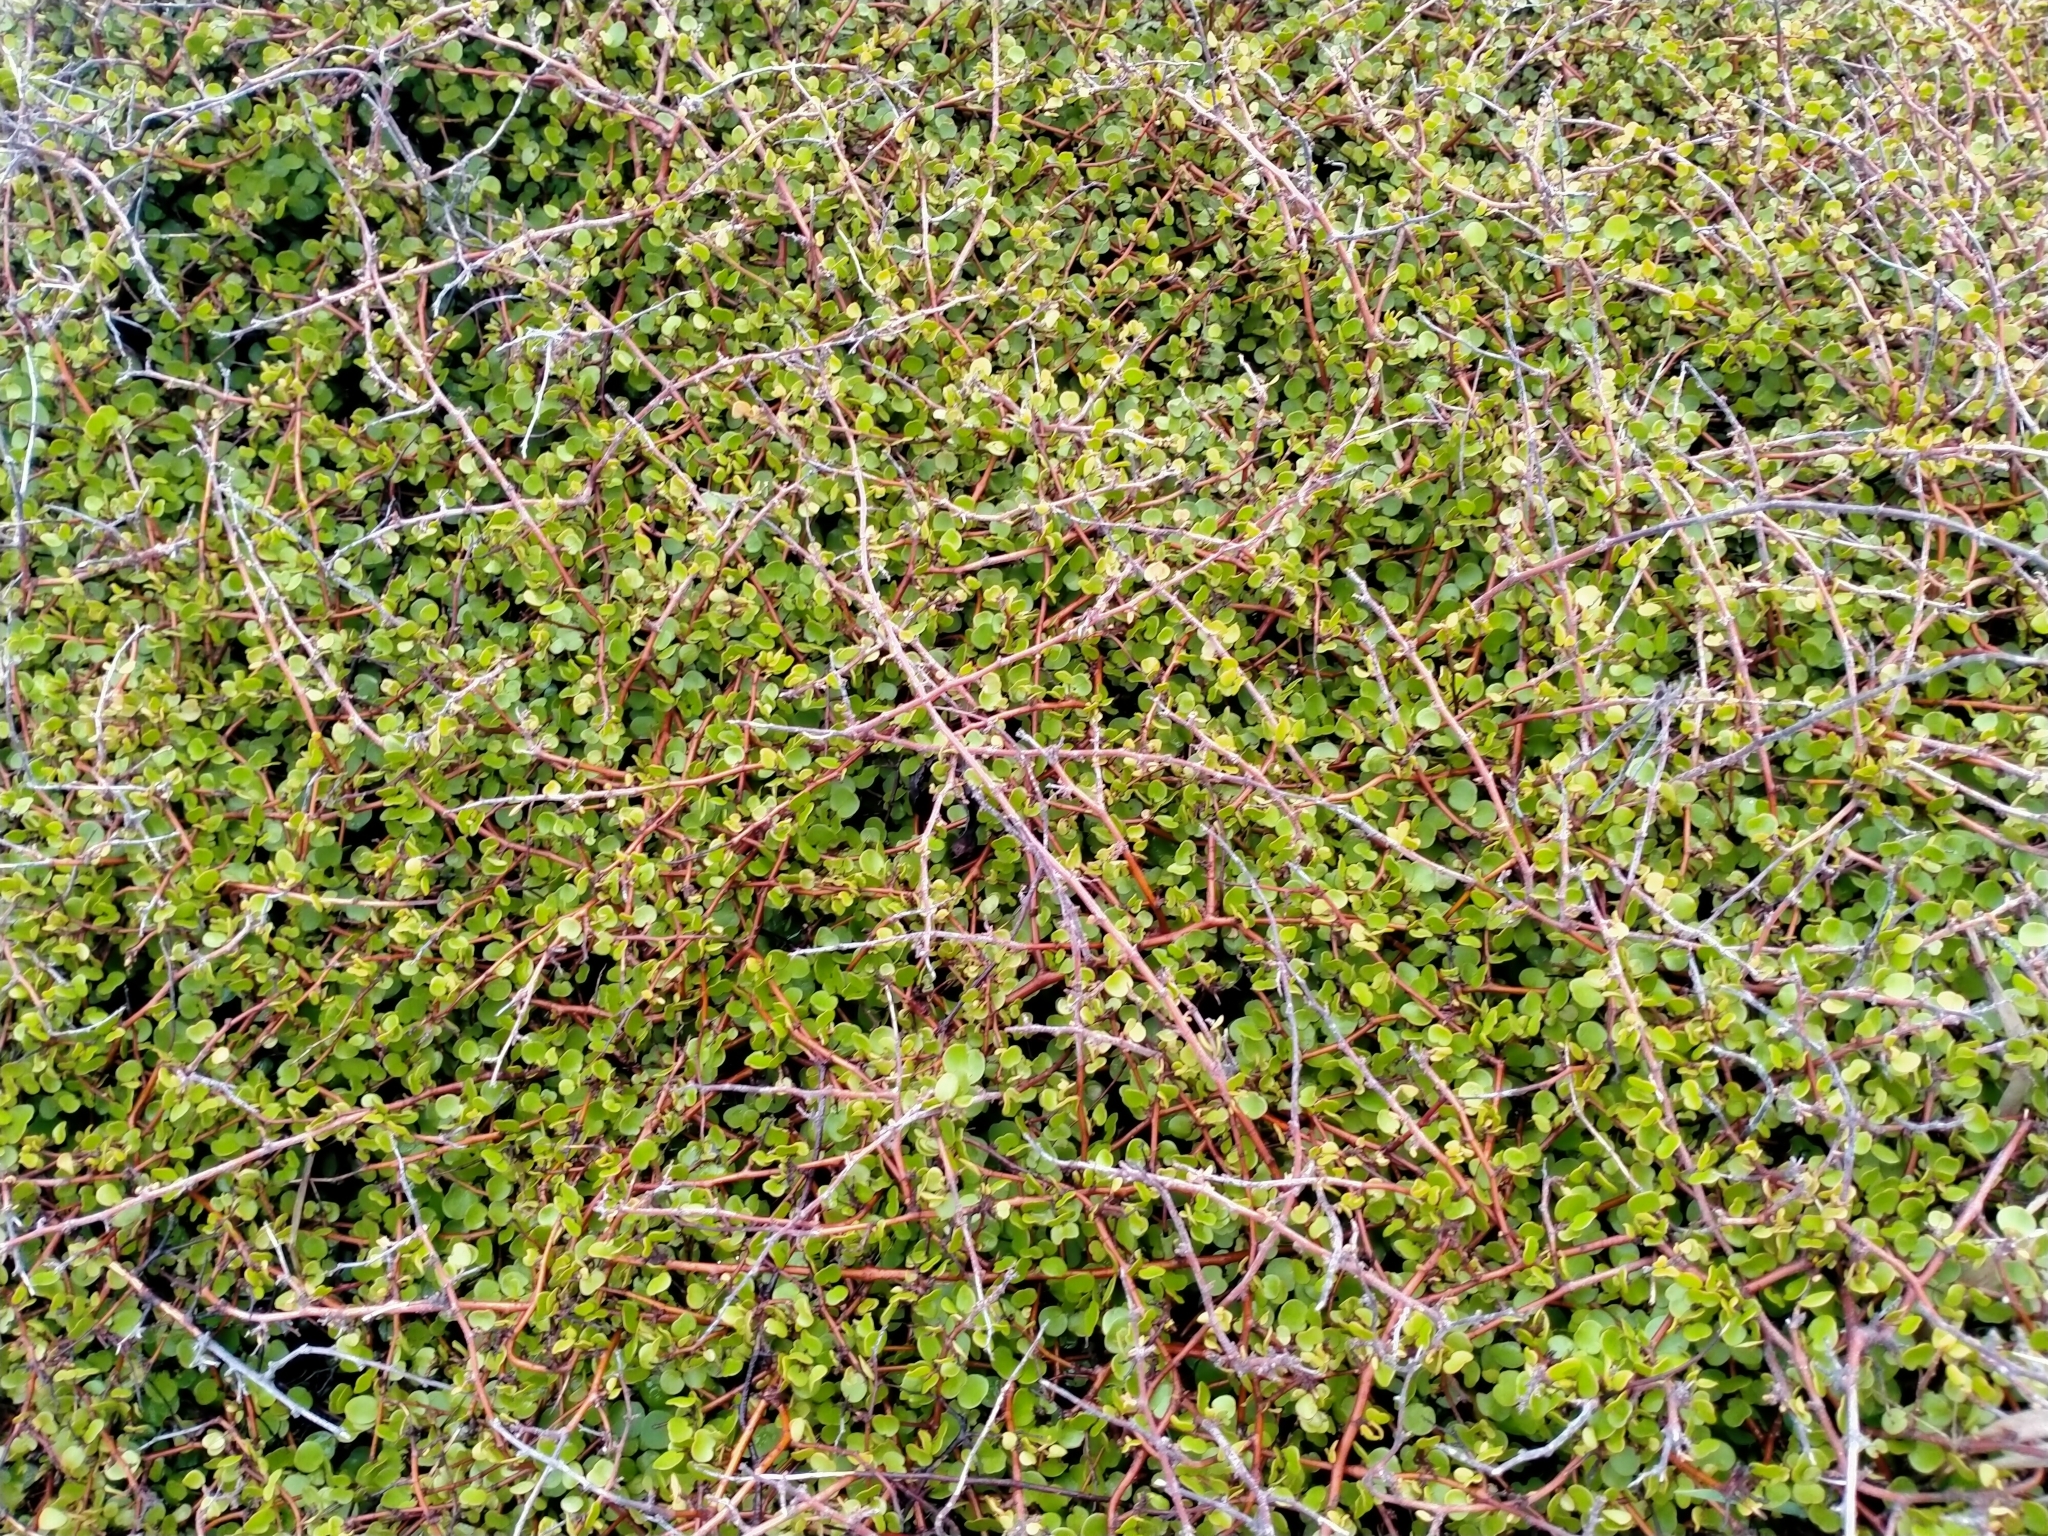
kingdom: Plantae
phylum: Tracheophyta
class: Magnoliopsida
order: Caryophyllales
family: Polygonaceae
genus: Muehlenbeckia
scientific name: Muehlenbeckia complexa
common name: Wireplant
